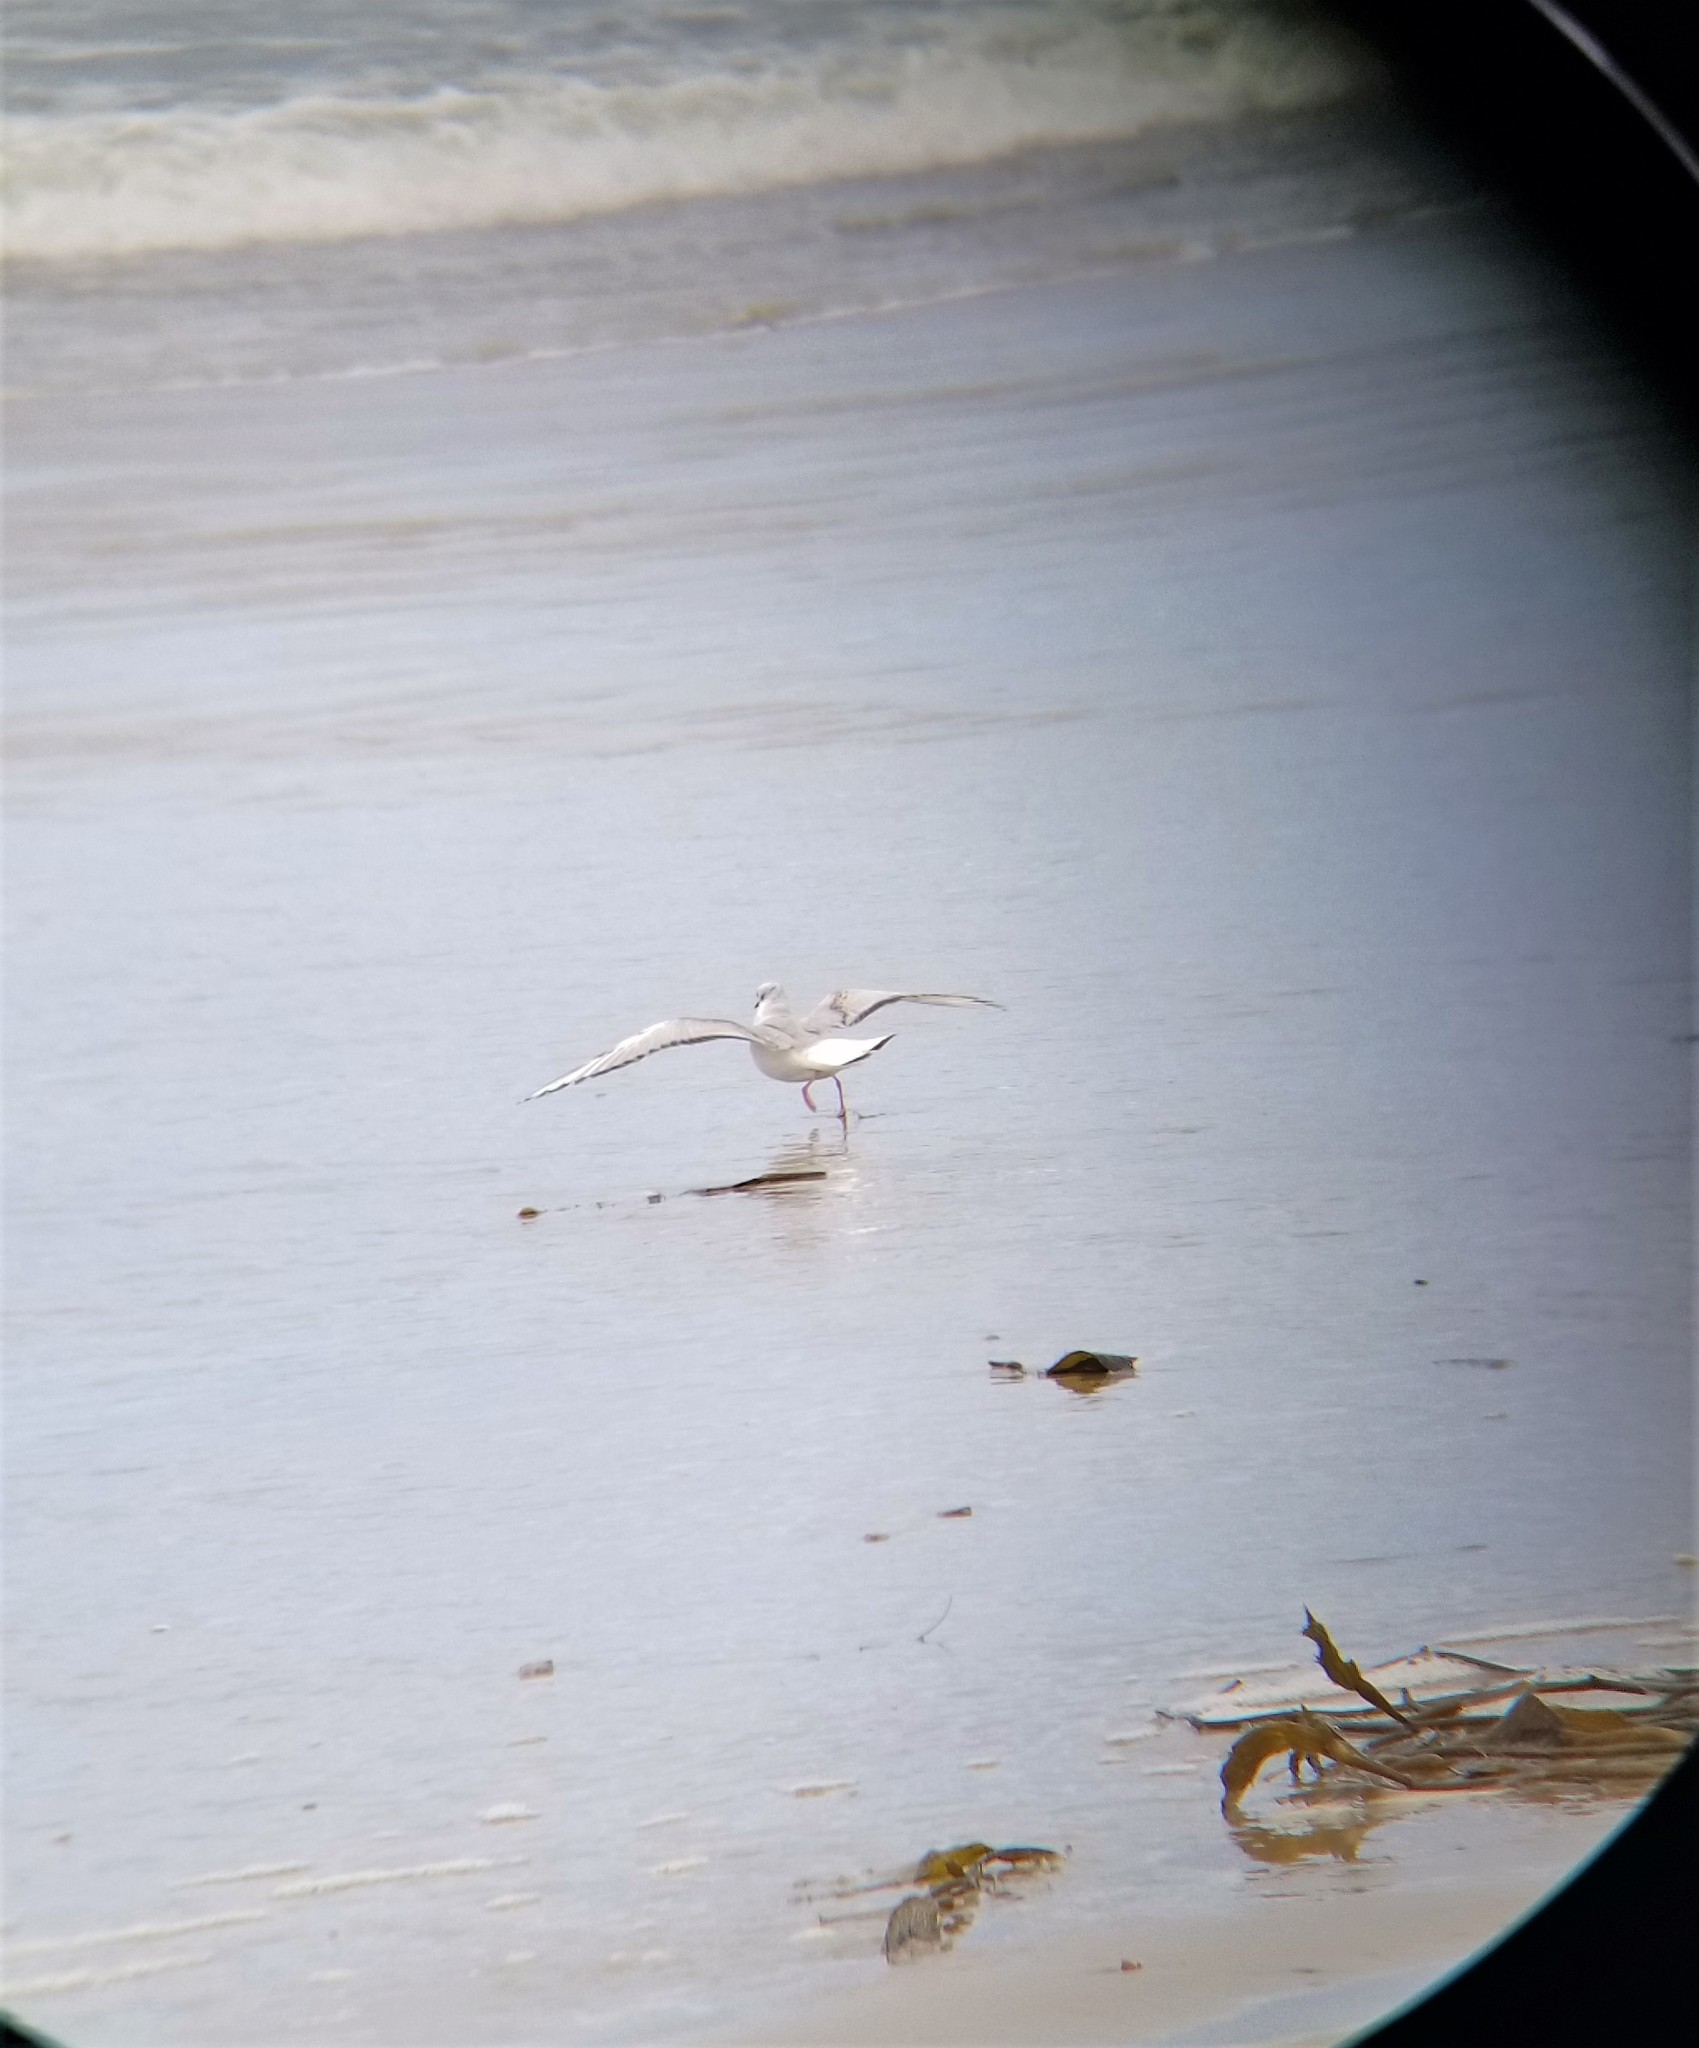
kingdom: Animalia
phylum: Chordata
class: Aves
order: Charadriiformes
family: Laridae
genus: Chroicocephalus
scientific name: Chroicocephalus philadelphia
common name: Bonaparte's gull
